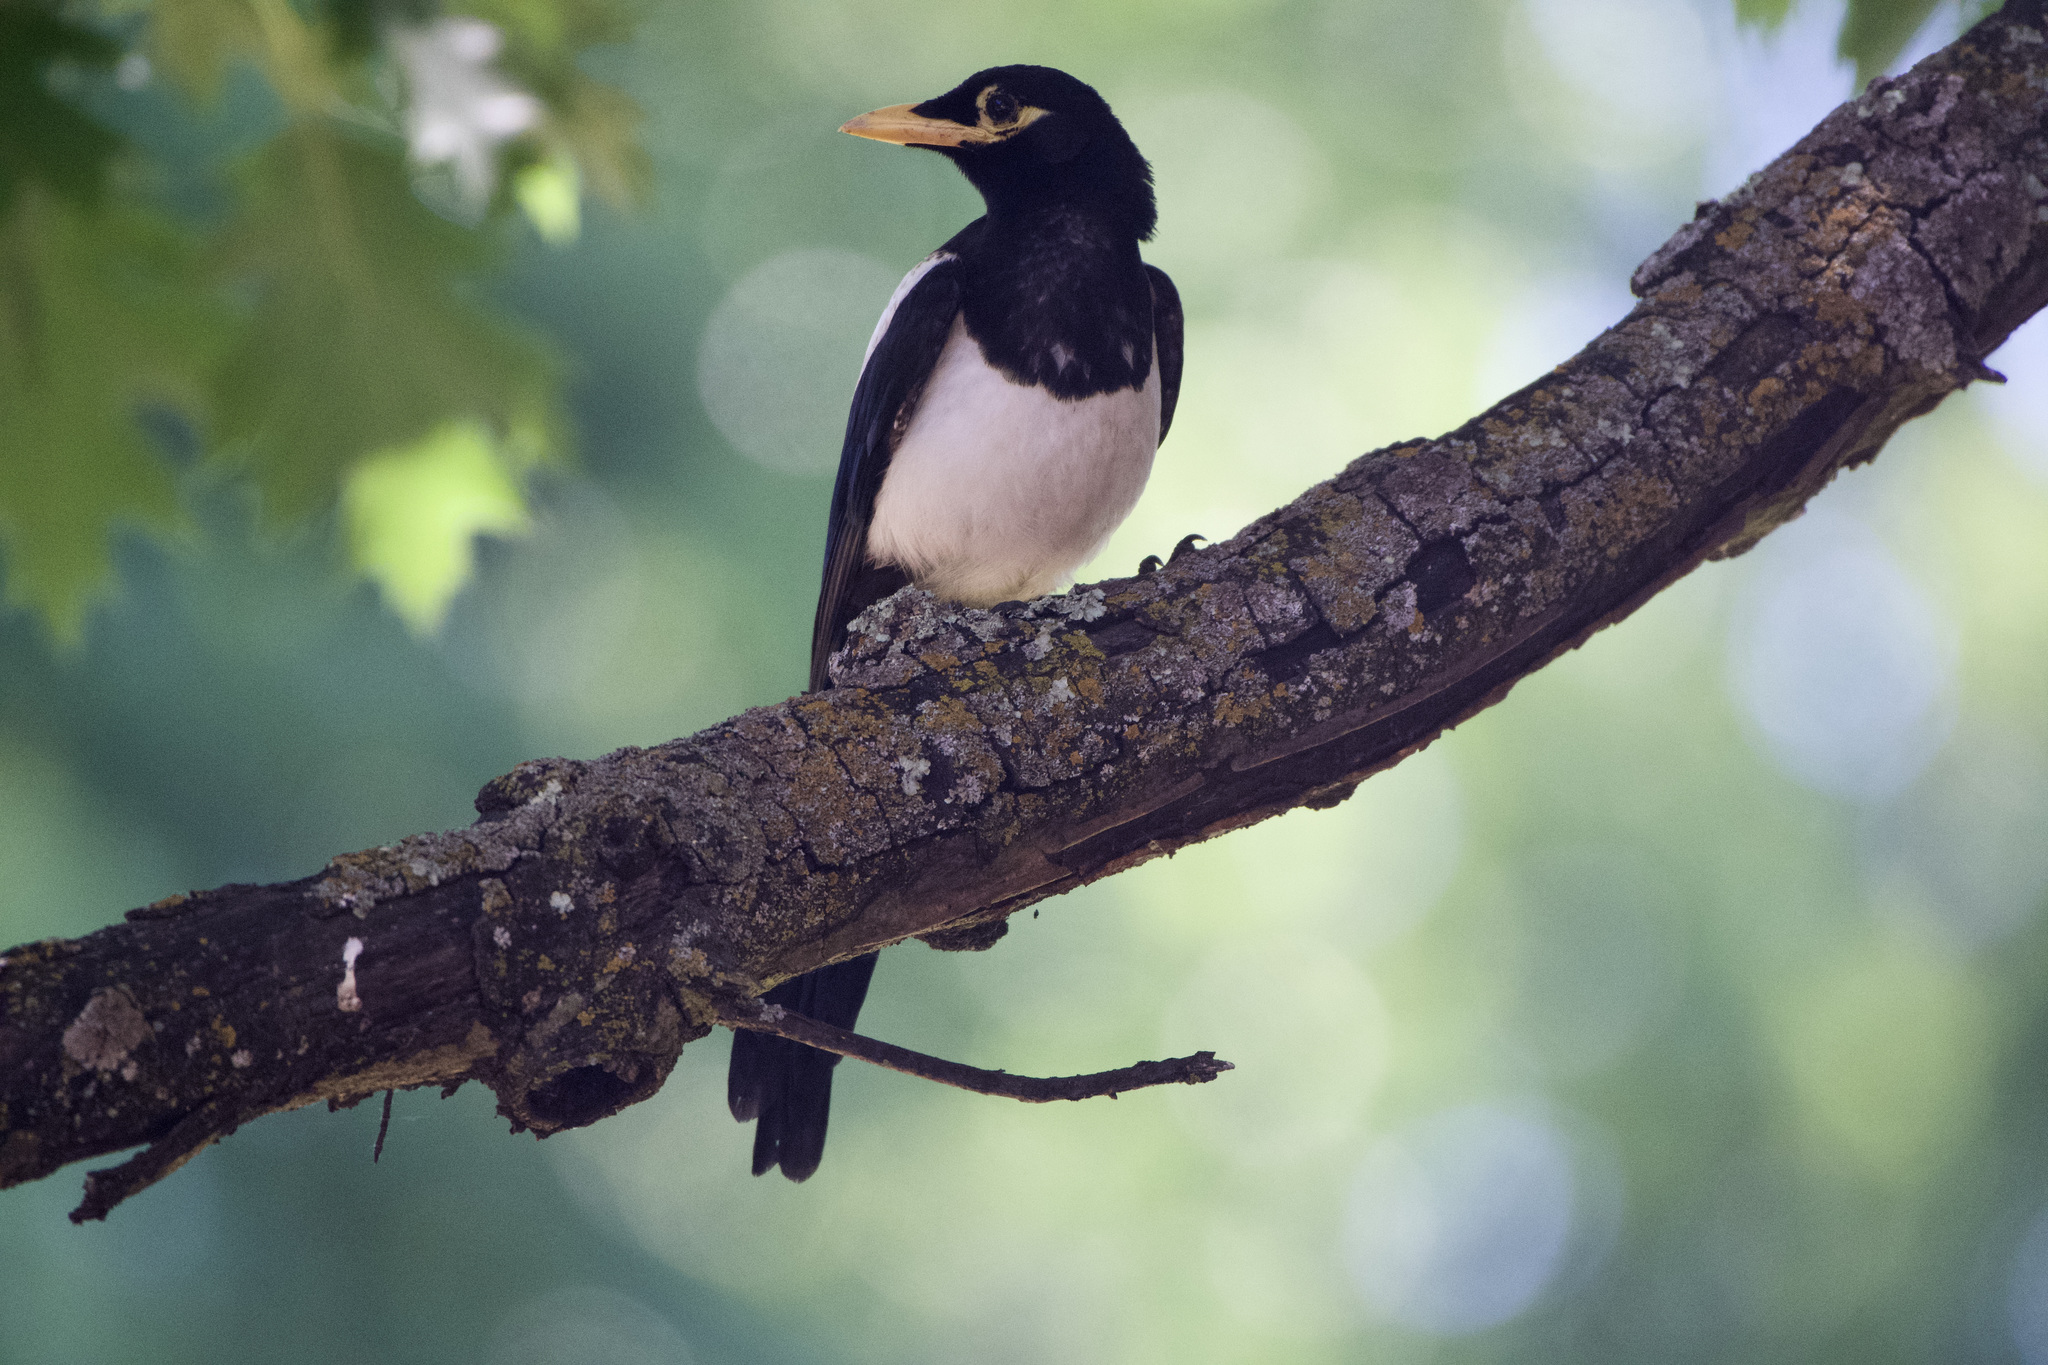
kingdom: Animalia
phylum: Chordata
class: Aves
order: Passeriformes
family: Corvidae
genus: Pica
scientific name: Pica nuttalli
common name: Yellow-billed magpie
